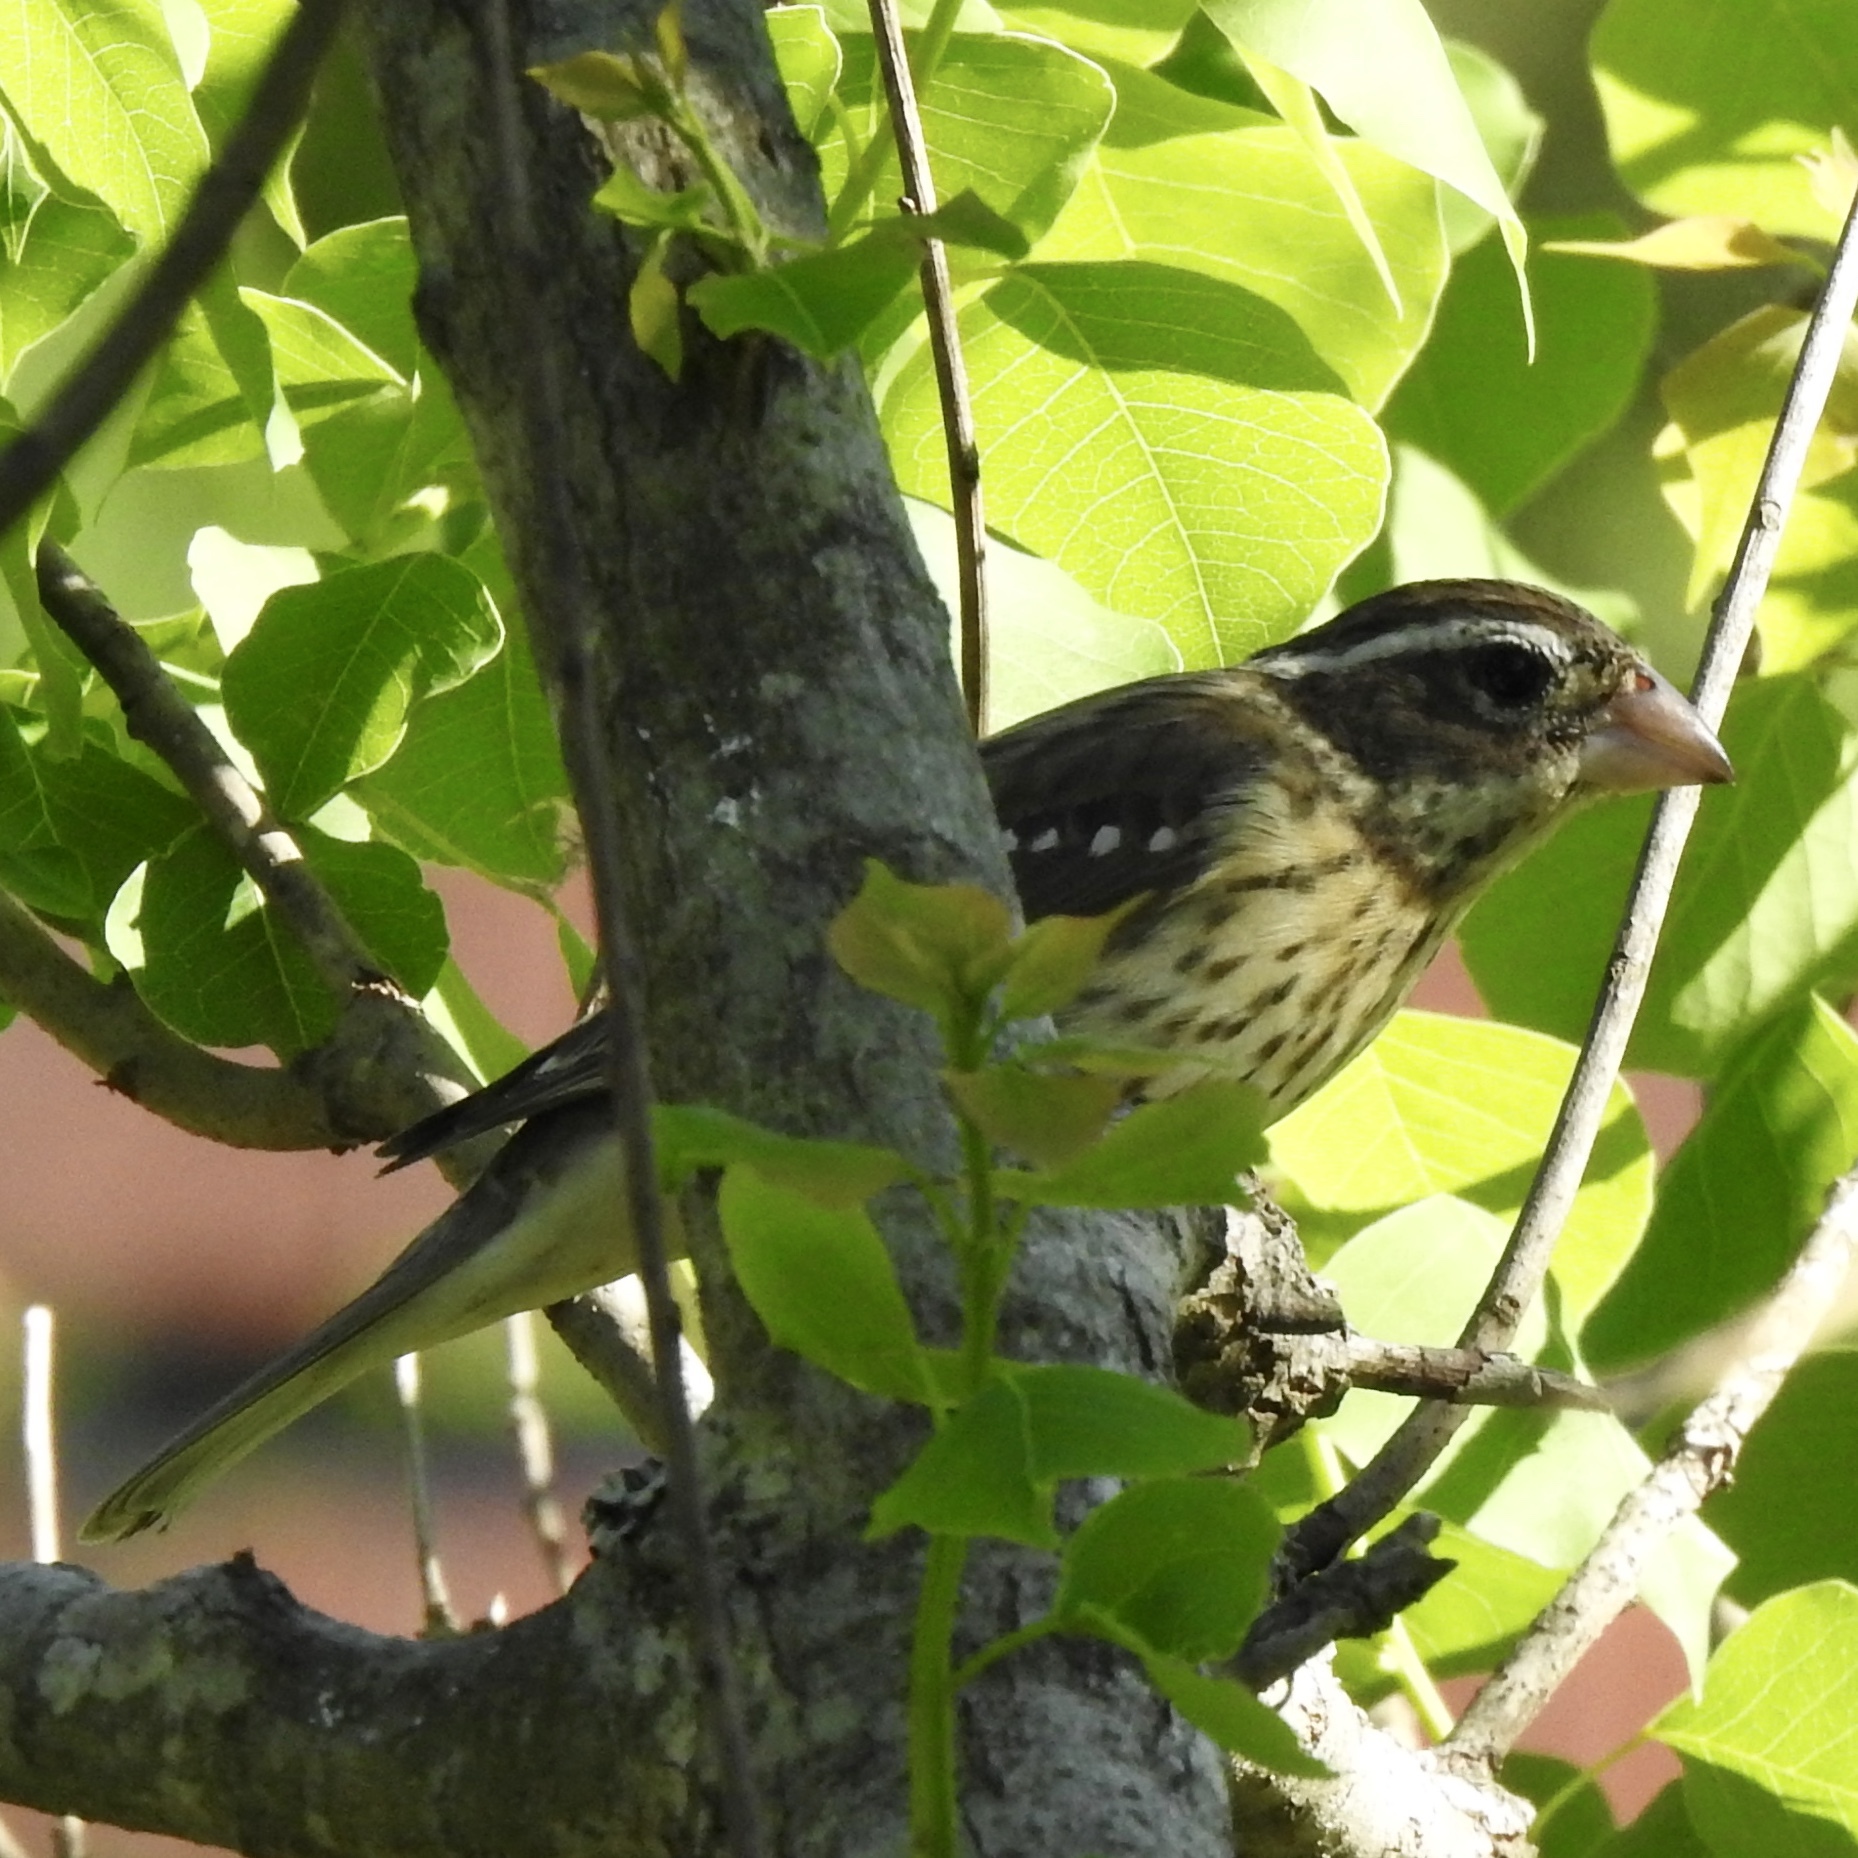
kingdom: Animalia
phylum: Chordata
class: Aves
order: Passeriformes
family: Cardinalidae
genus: Pheucticus
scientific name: Pheucticus ludovicianus
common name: Rose-breasted grosbeak
